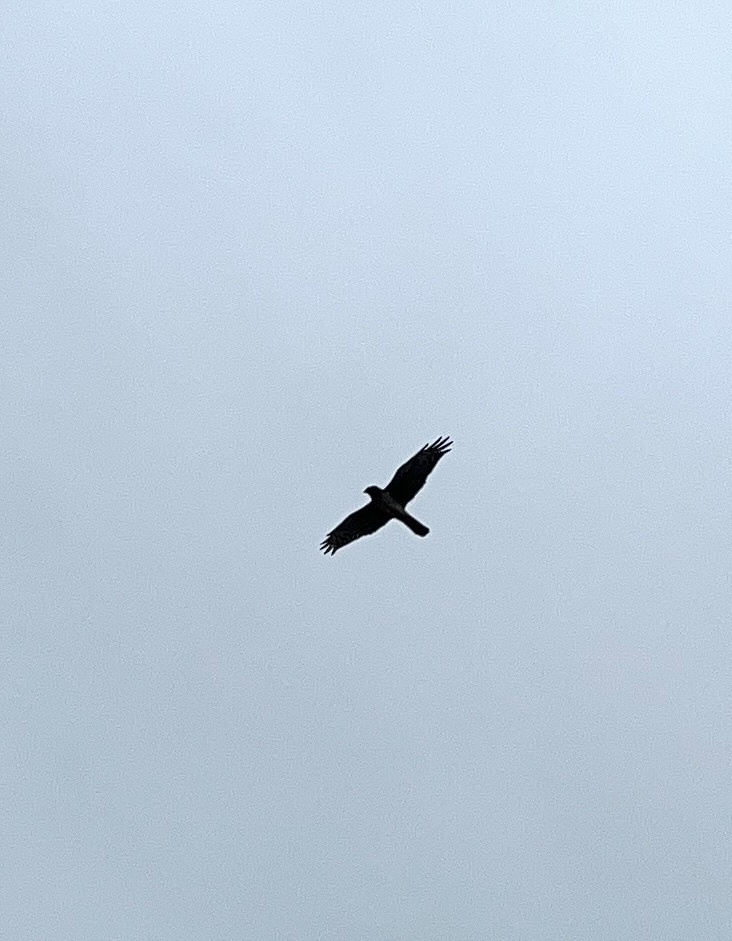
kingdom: Animalia
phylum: Chordata
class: Aves
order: Accipitriformes
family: Accipitridae
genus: Buteo
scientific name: Buteo lineatus
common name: Red-shouldered hawk
